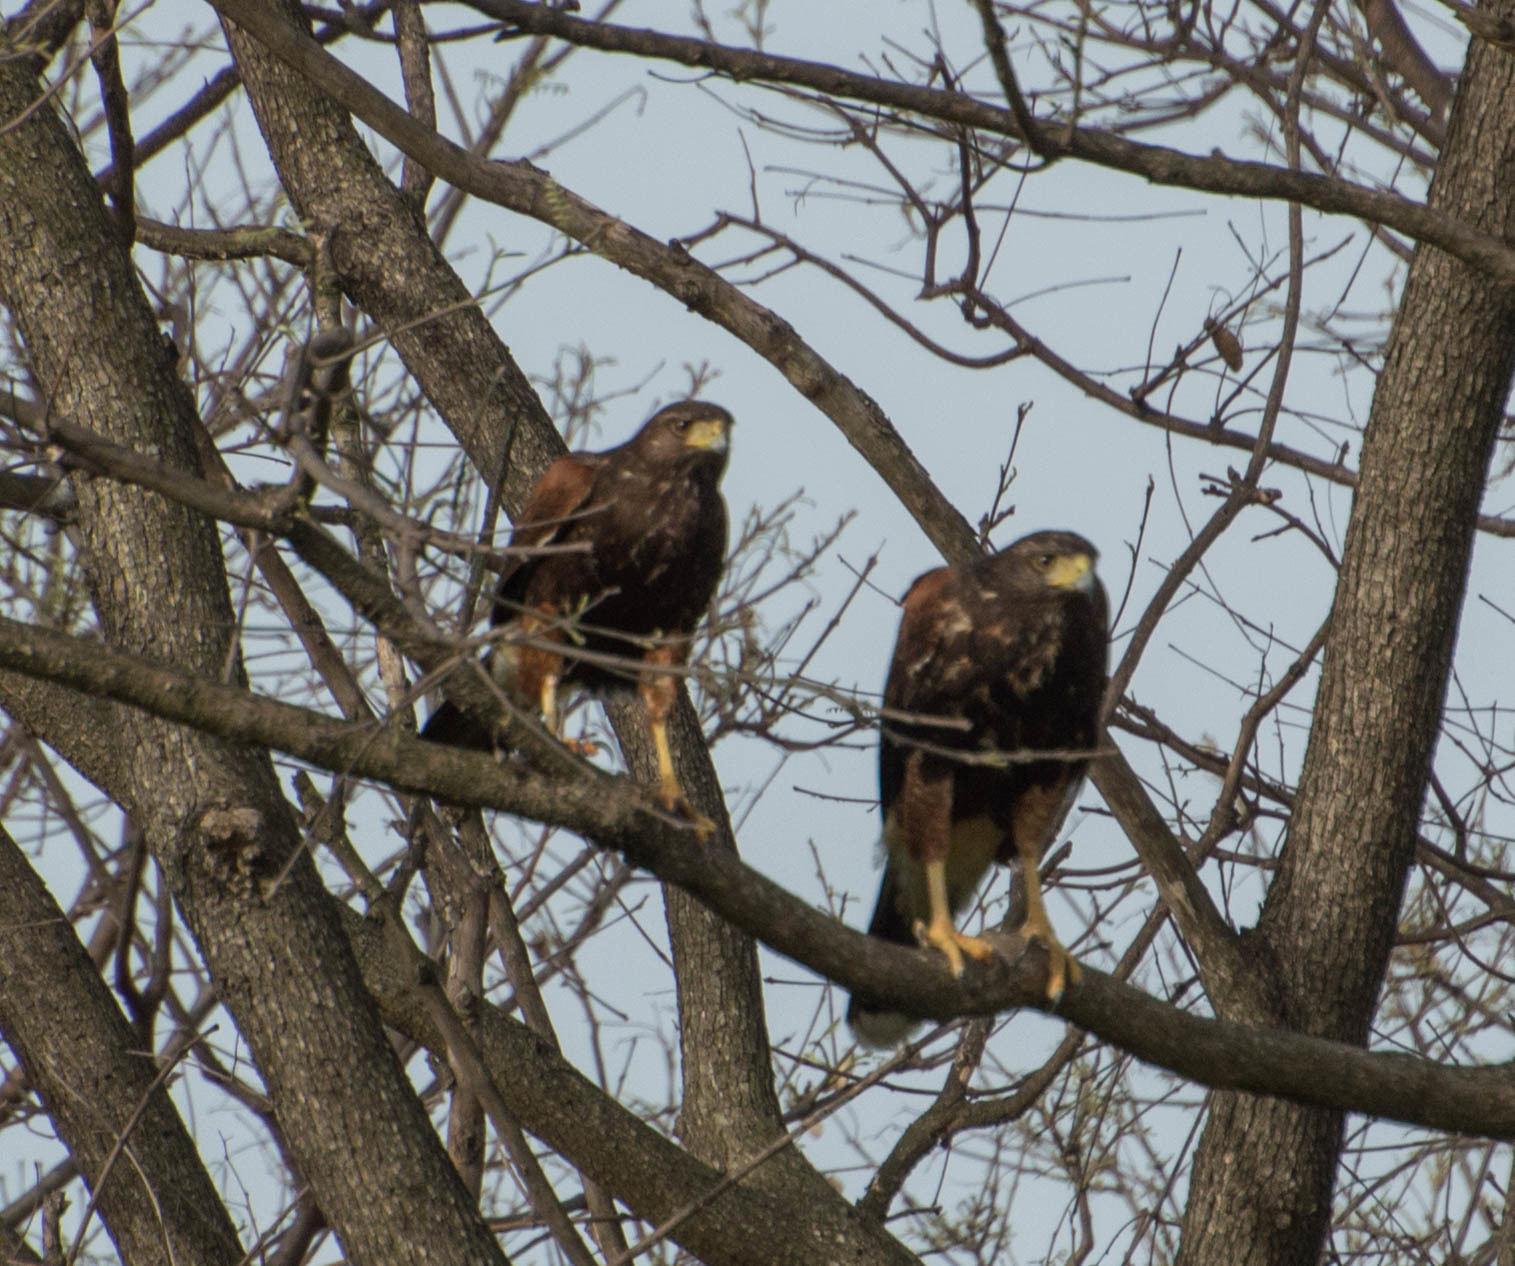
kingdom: Animalia
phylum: Chordata
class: Aves
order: Accipitriformes
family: Accipitridae
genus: Parabuteo
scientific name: Parabuteo unicinctus
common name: Harris's hawk
